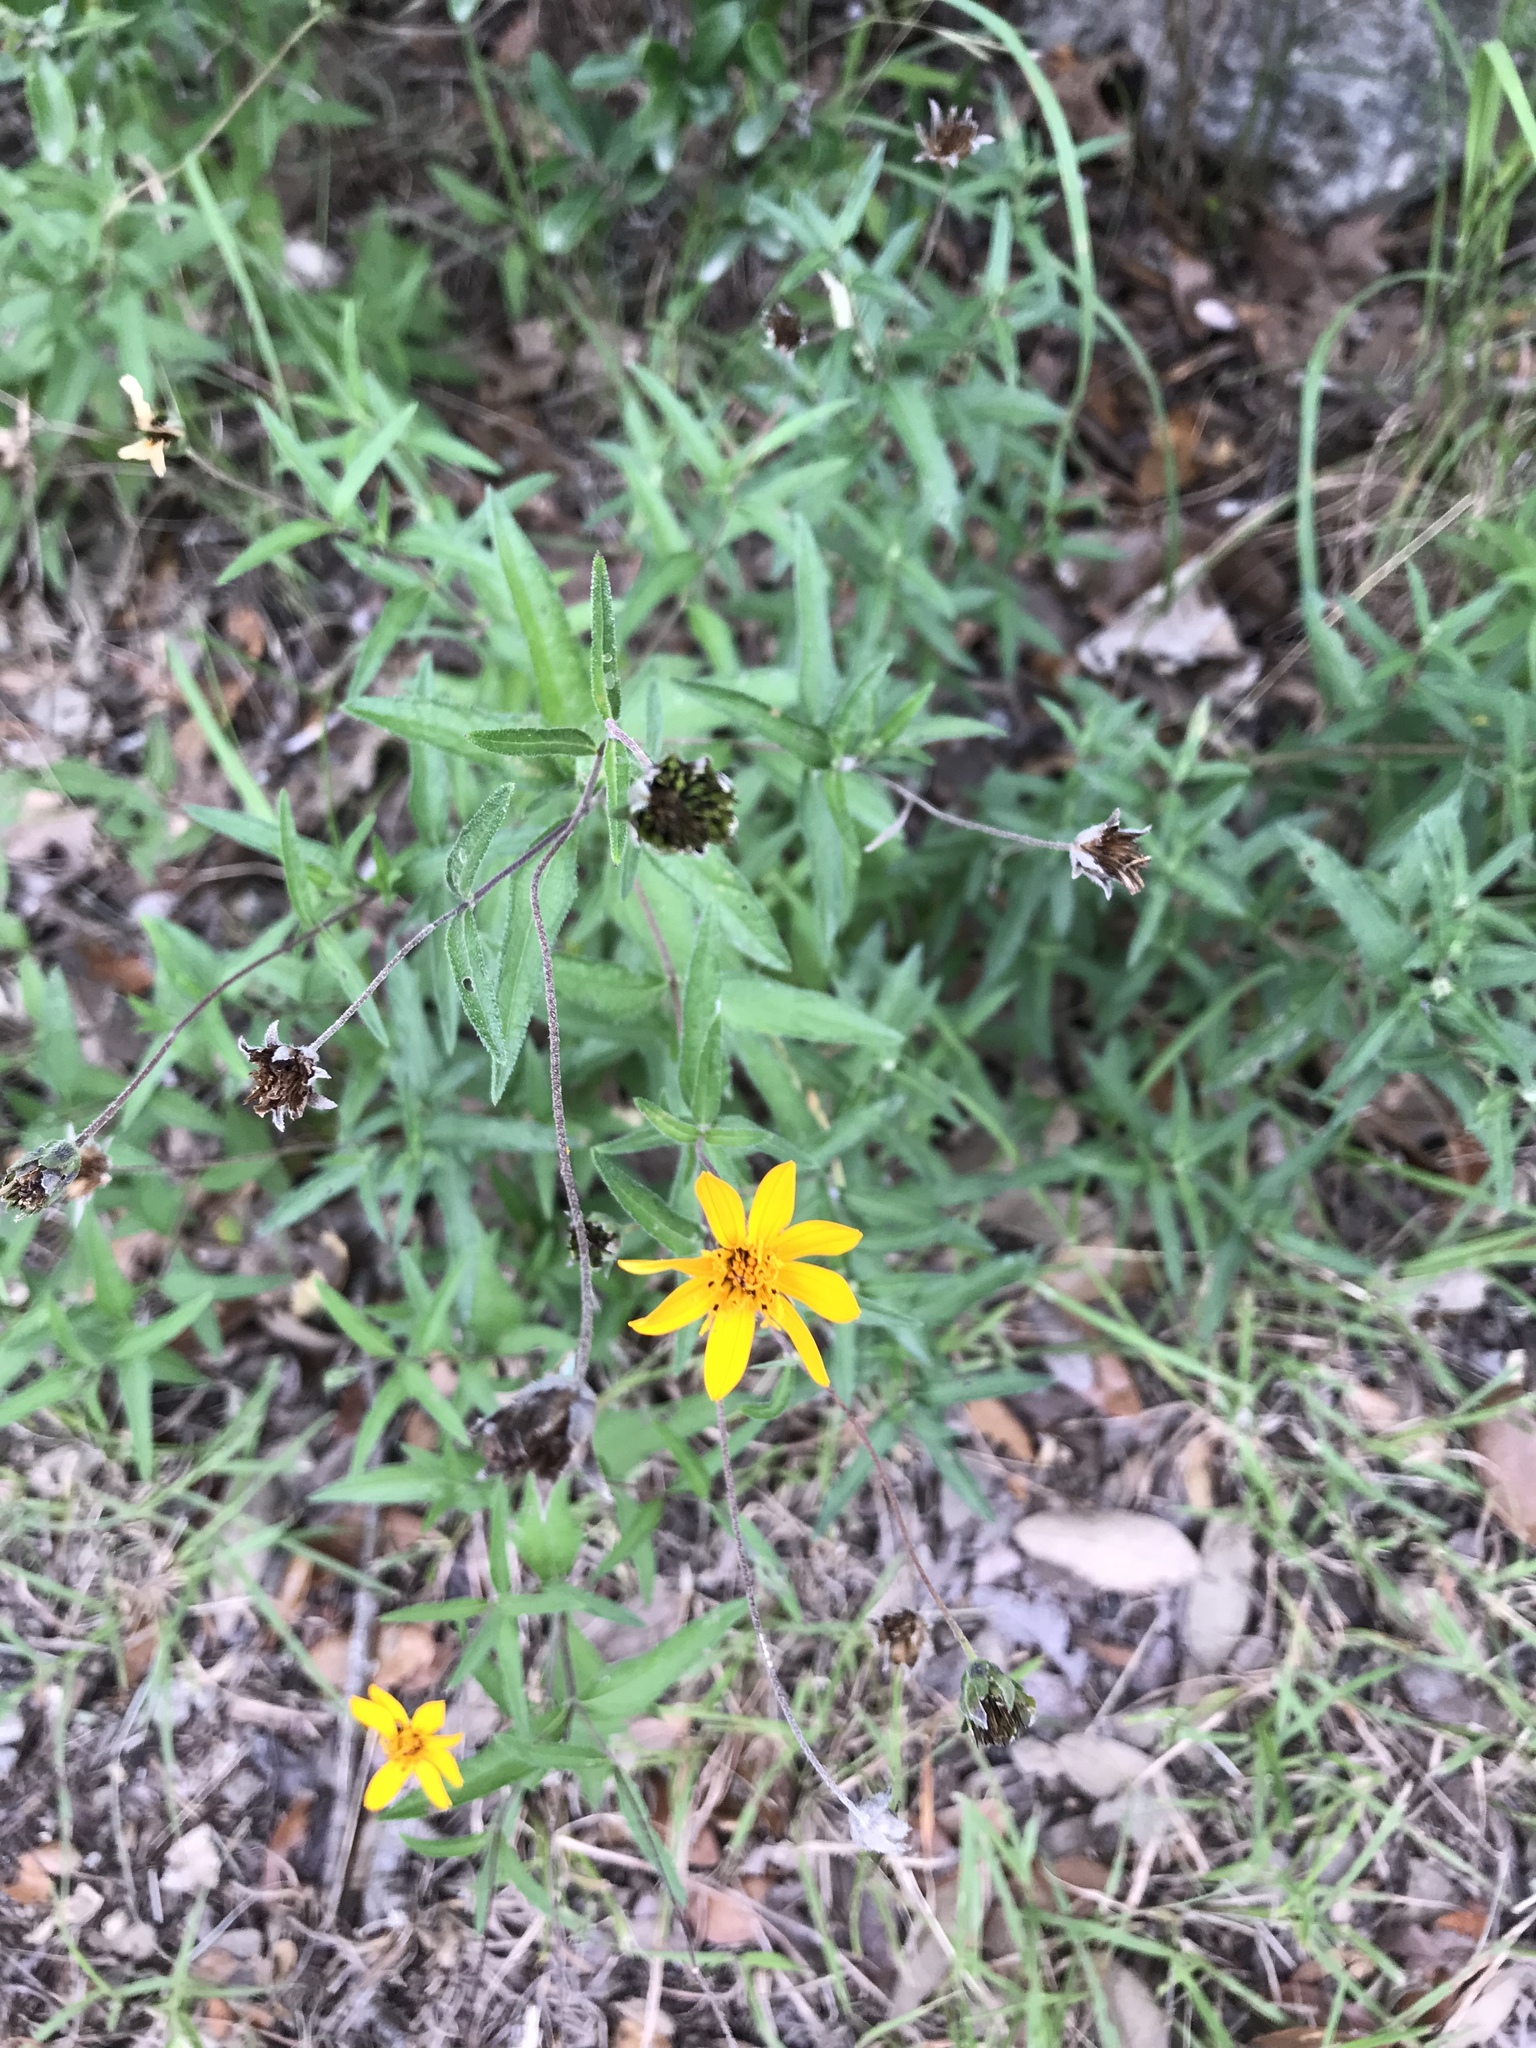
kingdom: Plantae
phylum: Tracheophyta
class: Magnoliopsida
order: Asterales
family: Asteraceae
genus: Wedelia
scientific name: Wedelia acapulcensis
